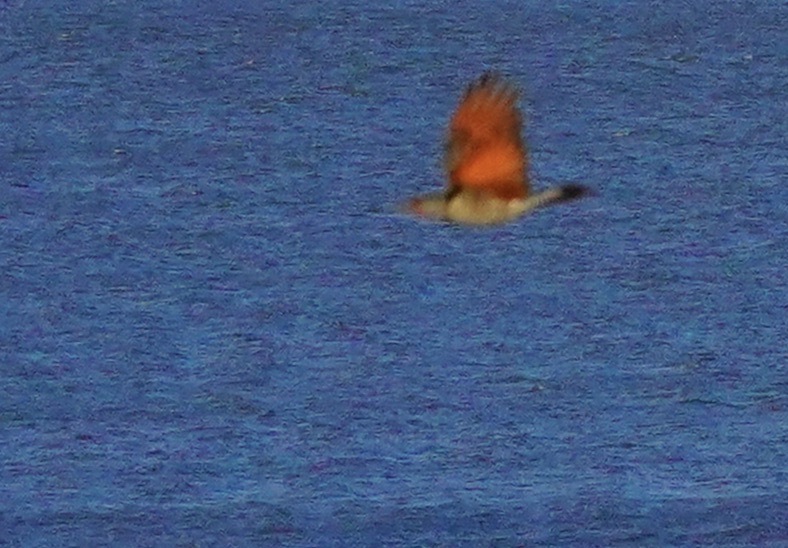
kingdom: Animalia
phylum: Chordata
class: Aves
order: Piciformes
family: Picidae
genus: Colaptes
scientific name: Colaptes auratus
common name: Northern flicker
